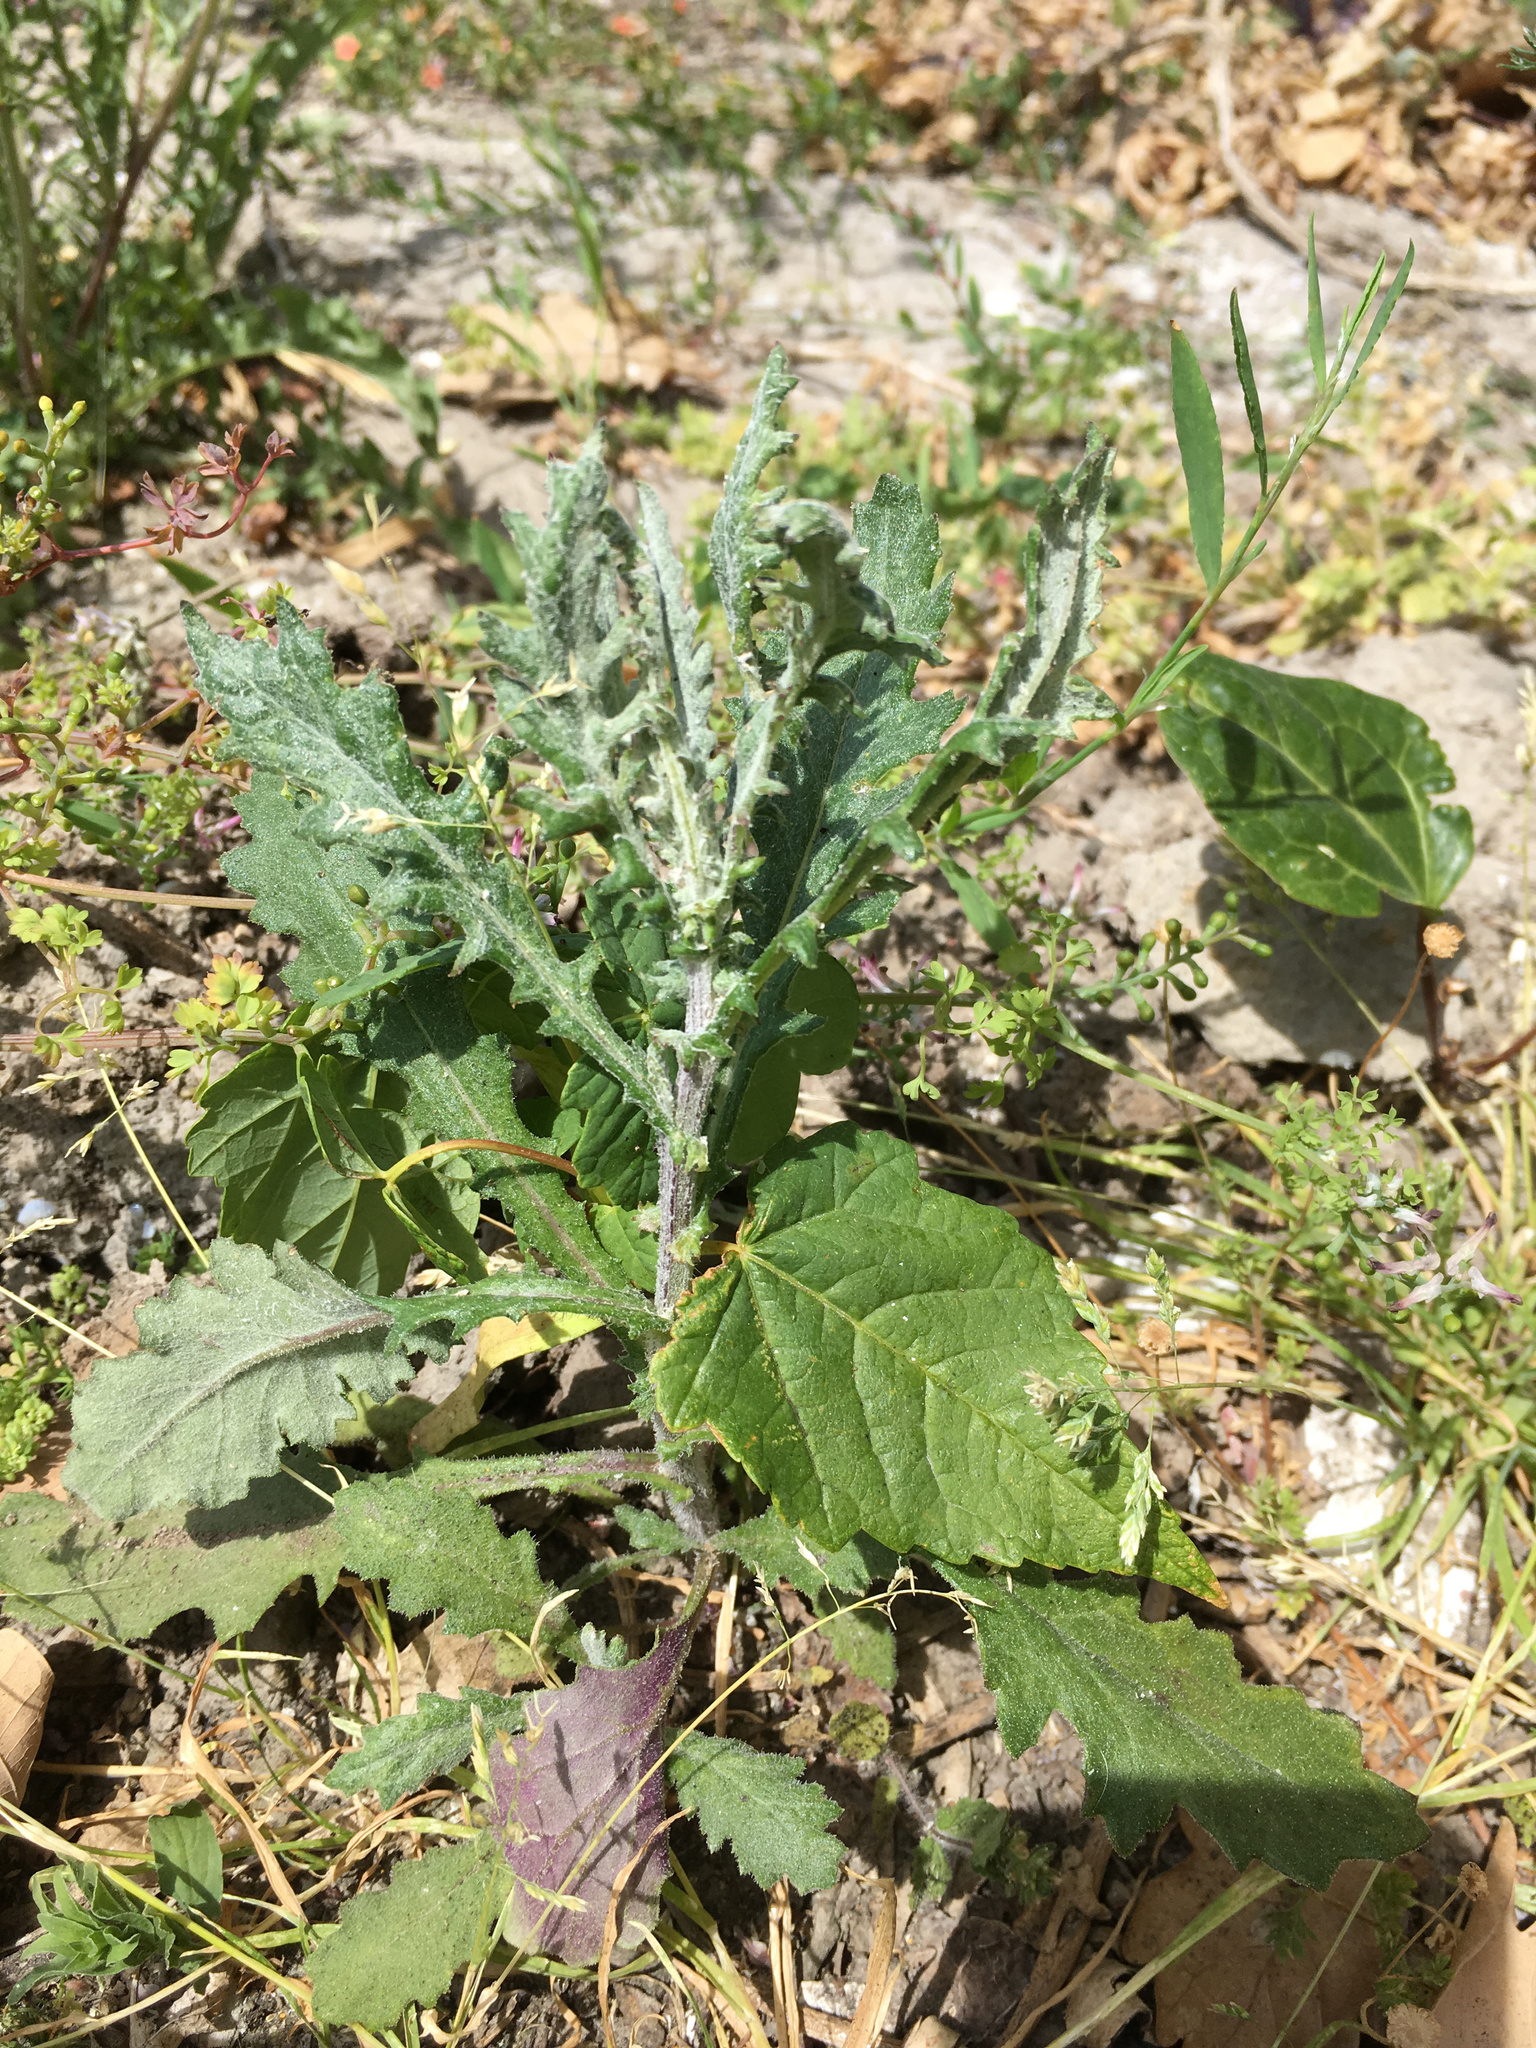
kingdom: Plantae
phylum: Tracheophyta
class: Magnoliopsida
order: Asterales
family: Asteraceae
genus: Senecio
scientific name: Senecio glomeratus
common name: Cutleaf burnweed
